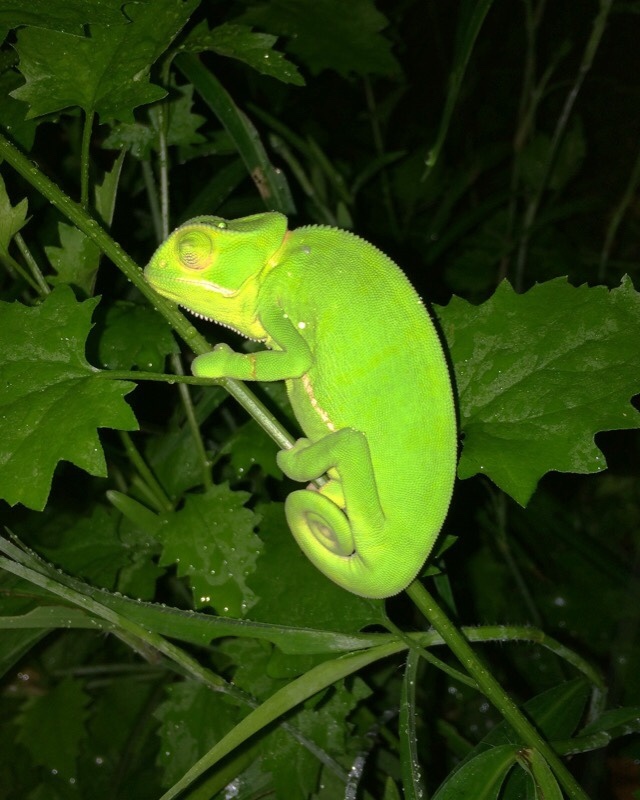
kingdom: Animalia
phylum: Chordata
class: Squamata
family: Chamaeleonidae
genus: Chamaeleo
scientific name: Chamaeleo dilepis
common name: Flapneck chameleon
